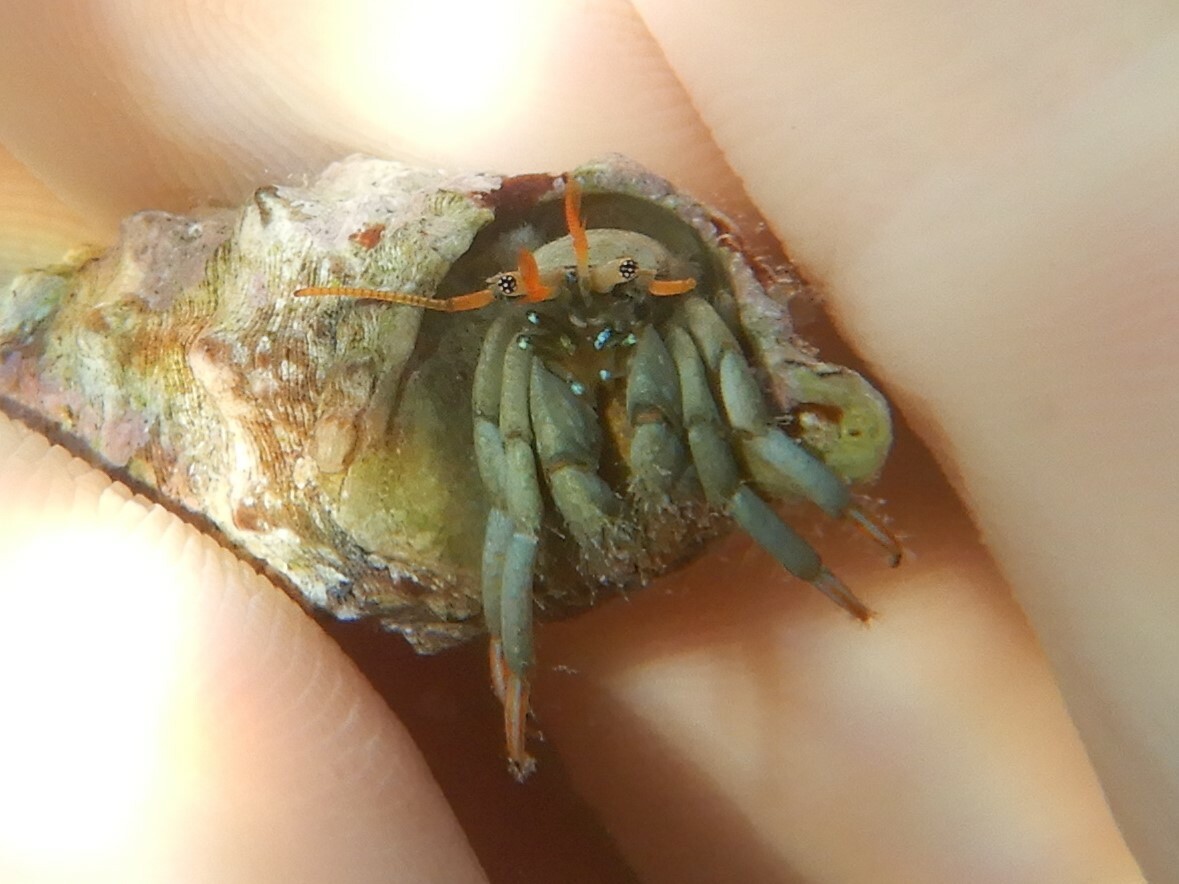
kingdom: Animalia
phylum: Arthropoda
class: Malacostraca
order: Decapoda
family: Diogenidae
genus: Clibanarius
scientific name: Clibanarius erythropus
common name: Hermit crab
